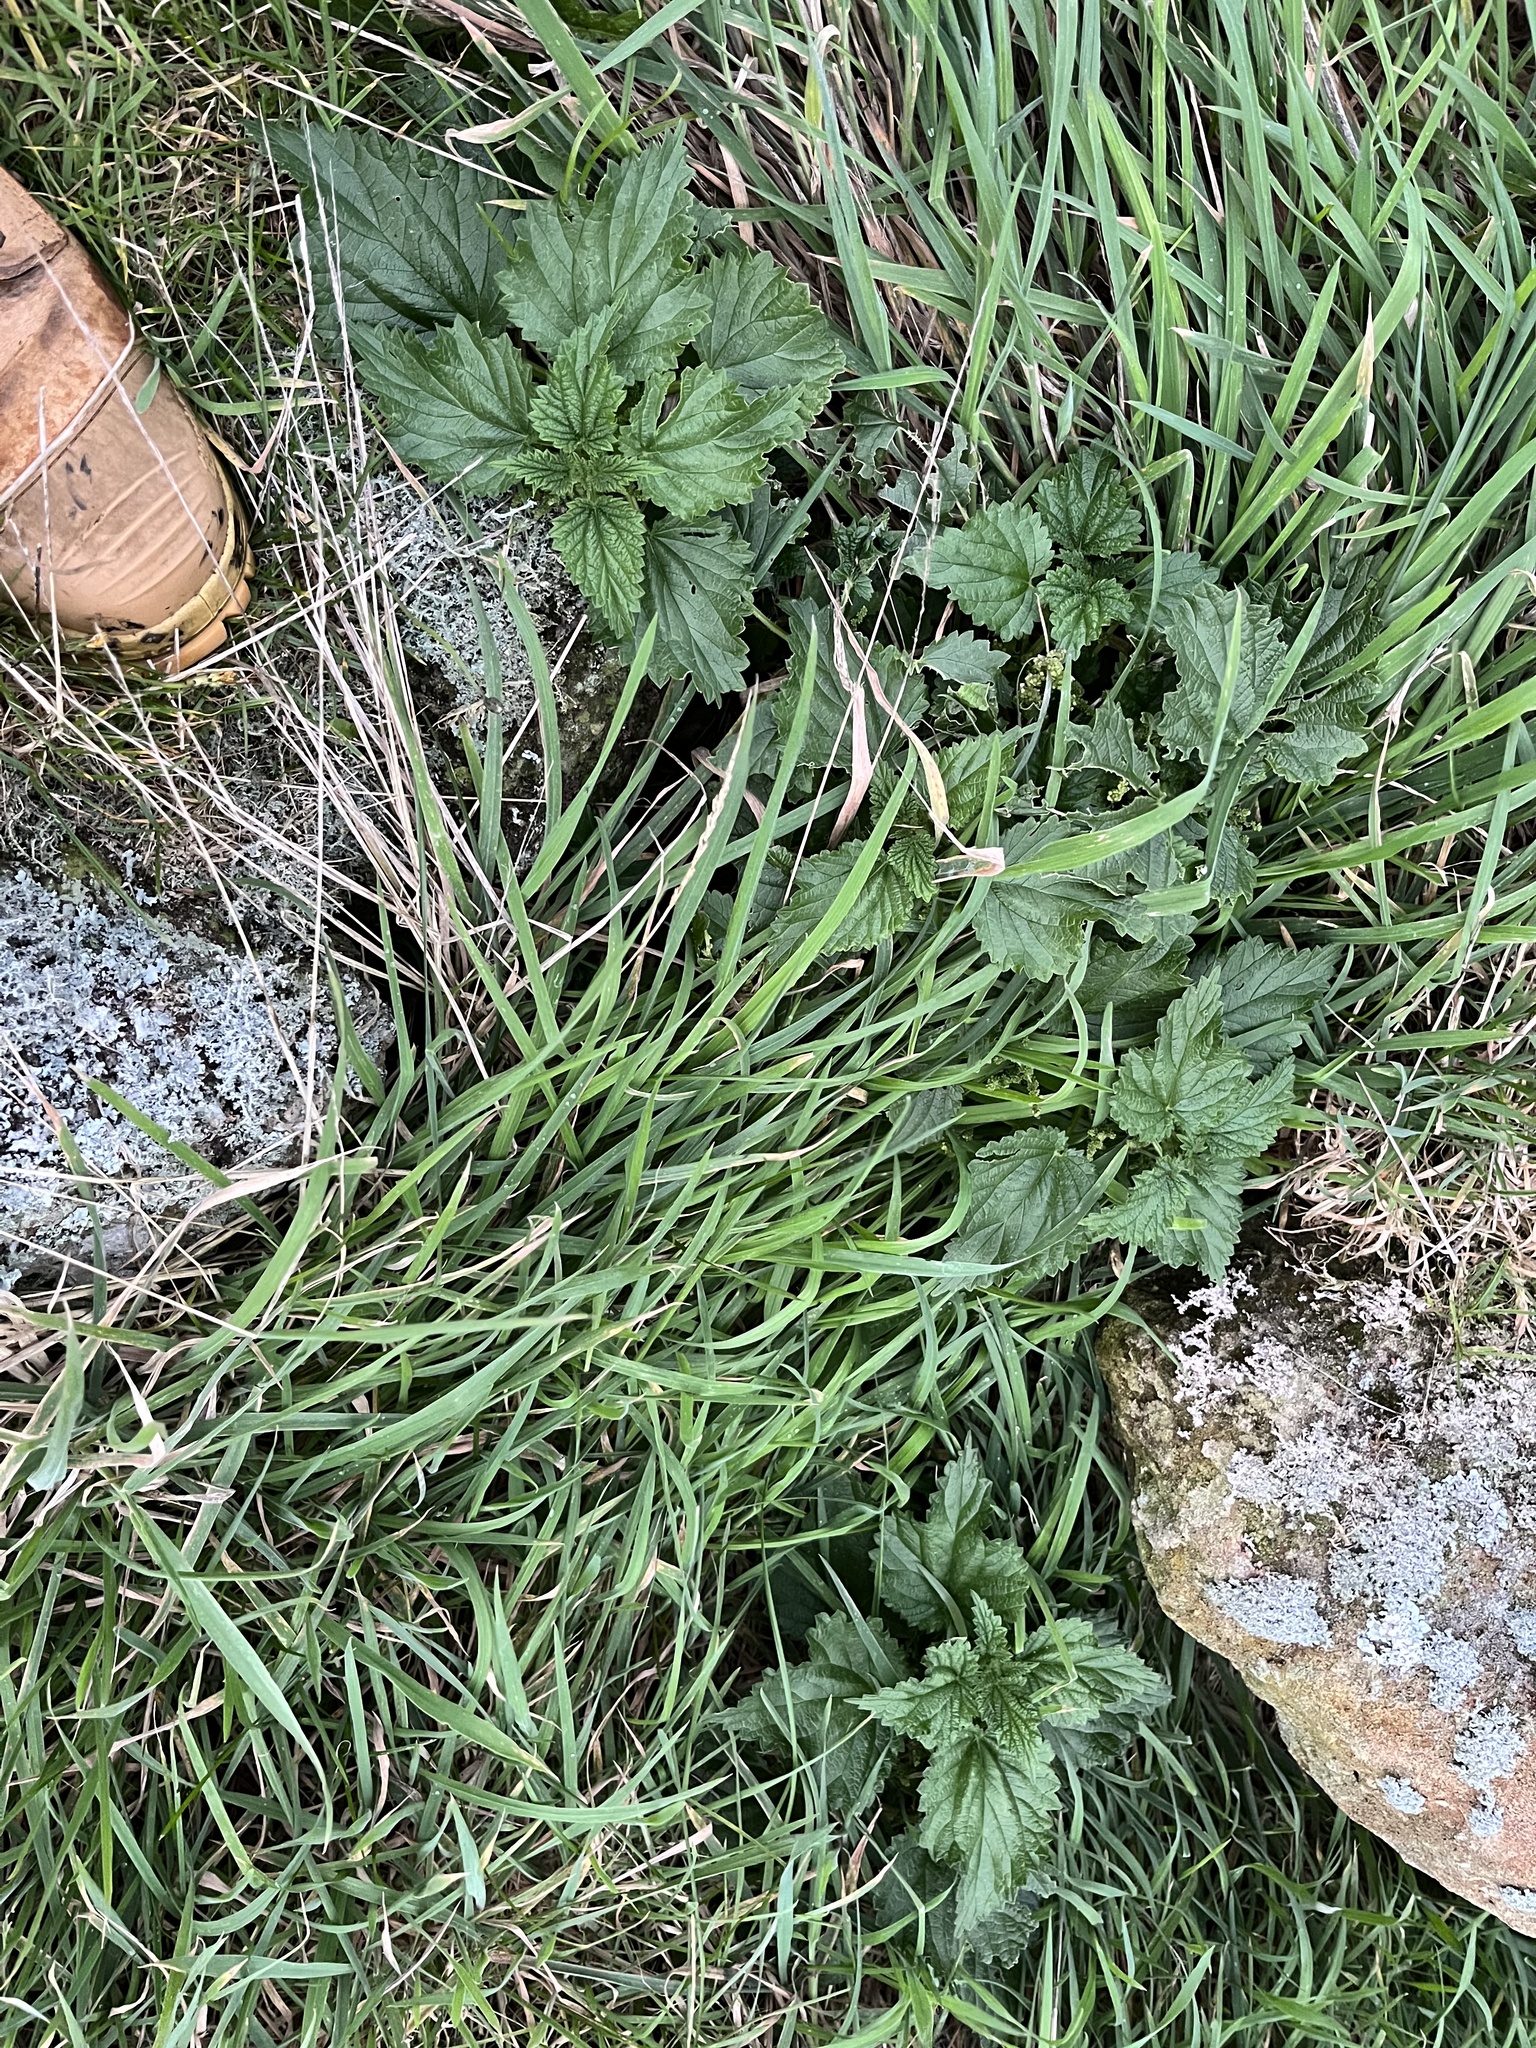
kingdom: Plantae
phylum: Tracheophyta
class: Magnoliopsida
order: Rosales
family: Urticaceae
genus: Urtica
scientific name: Urtica australis
